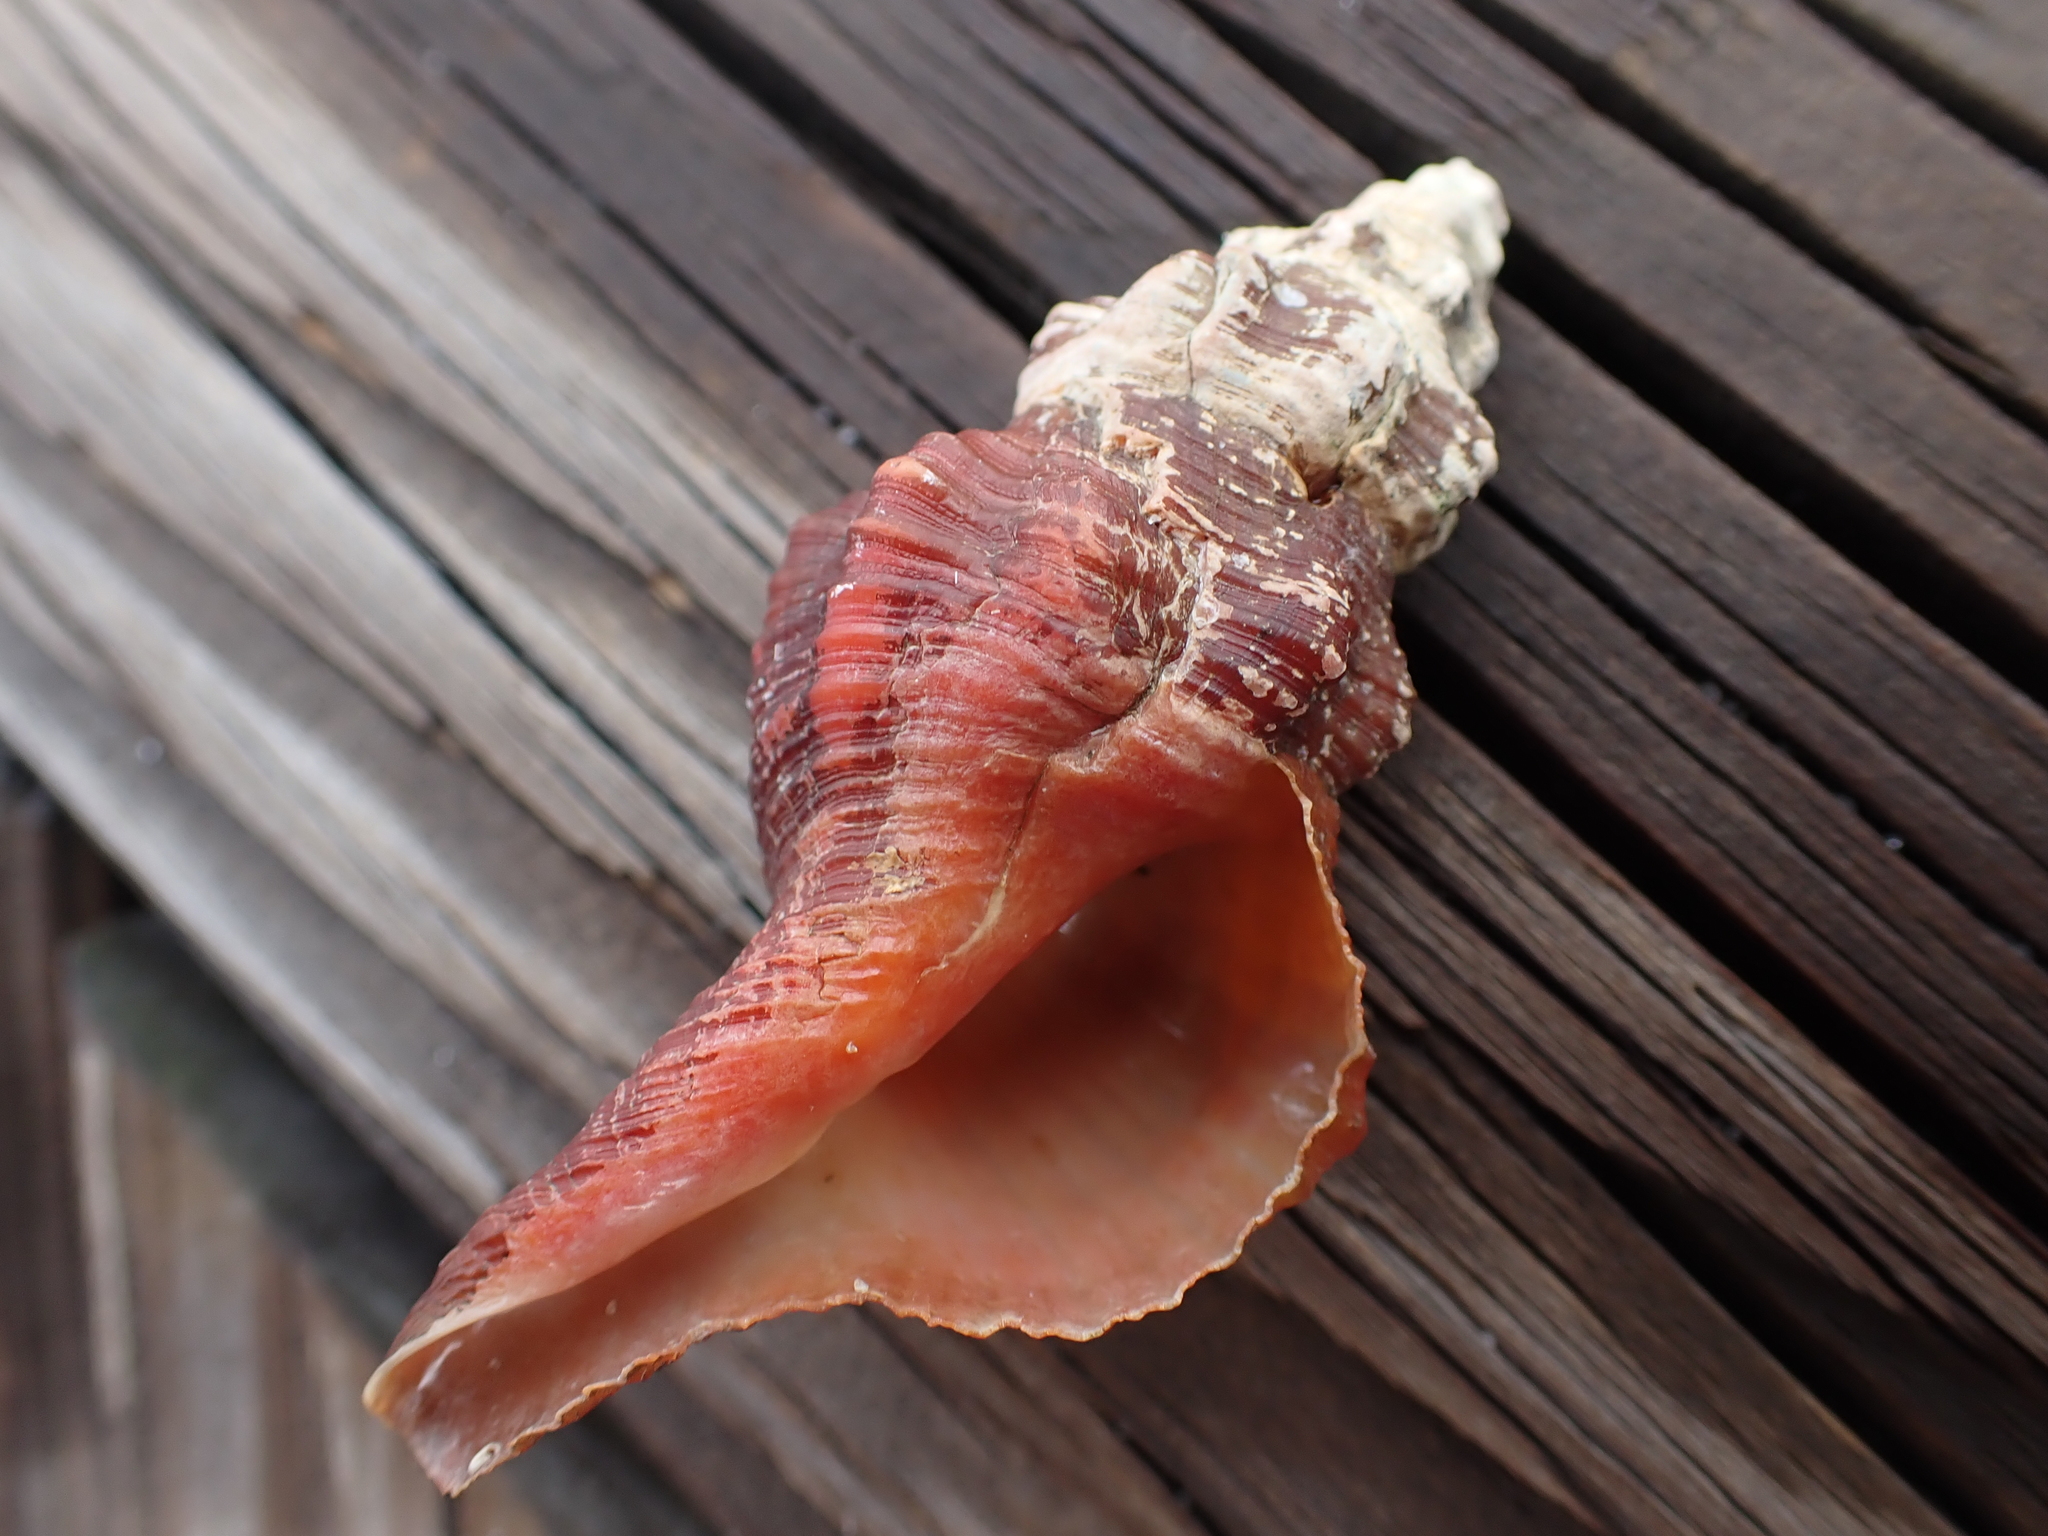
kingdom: Animalia
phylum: Mollusca
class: Gastropoda
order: Neogastropoda
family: Fasciolariidae
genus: Triplofusus
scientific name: Triplofusus giganteus
